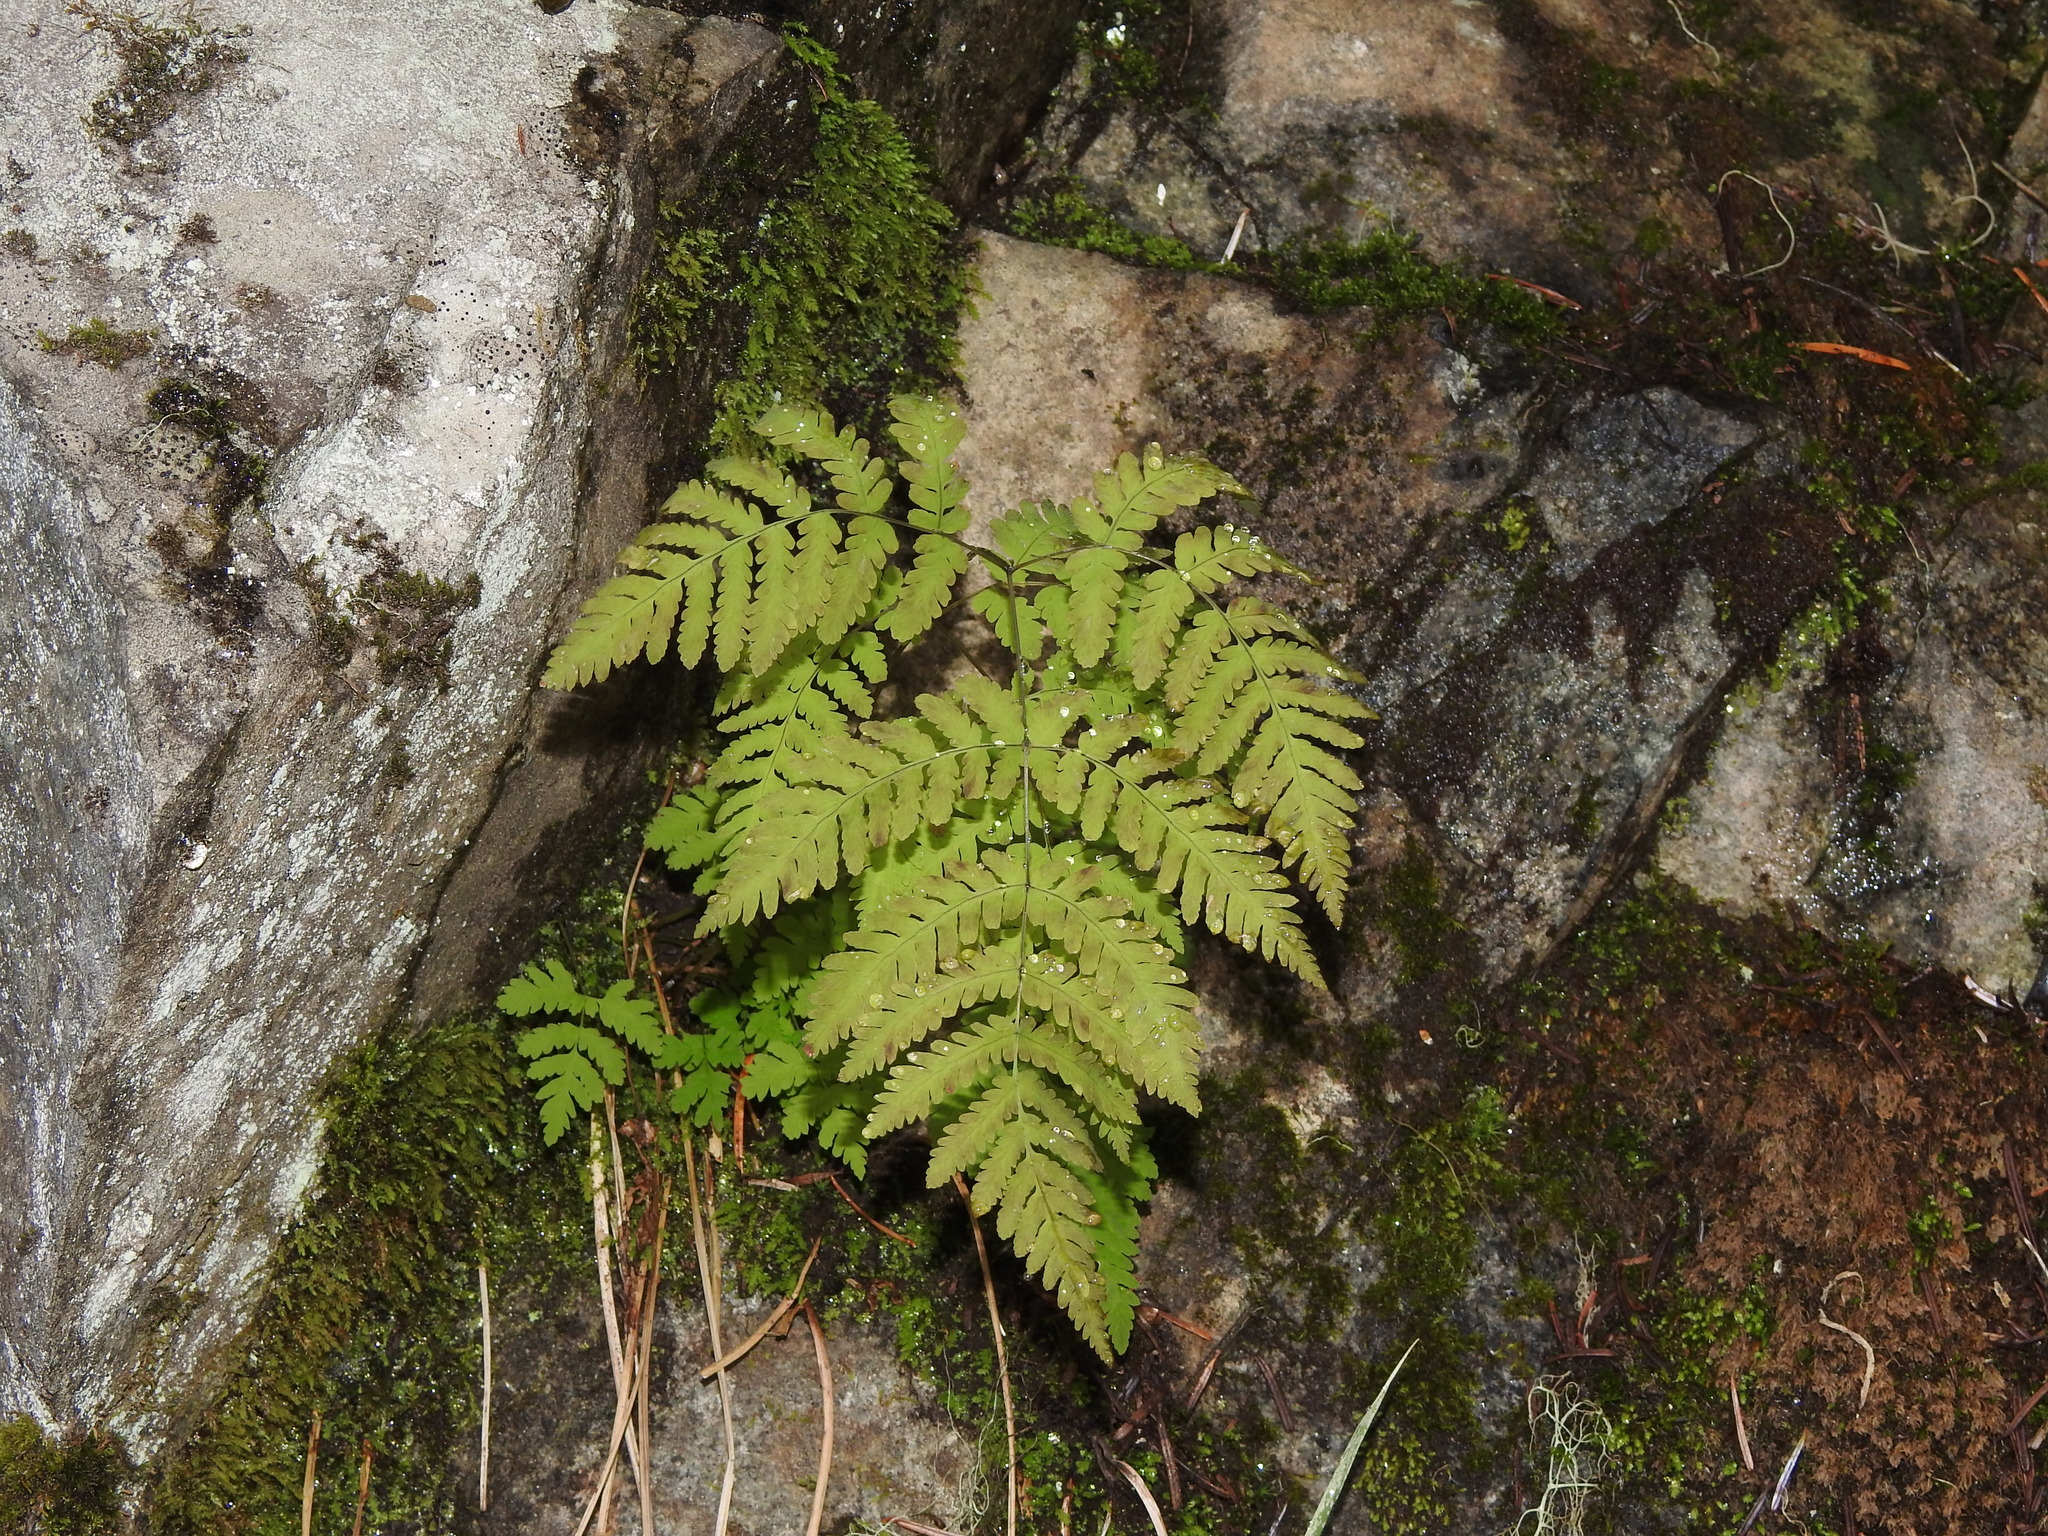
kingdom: Plantae
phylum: Tracheophyta
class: Polypodiopsida
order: Polypodiales
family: Cystopteridaceae
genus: Gymnocarpium
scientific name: Gymnocarpium disjunctum
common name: Western oak fern
